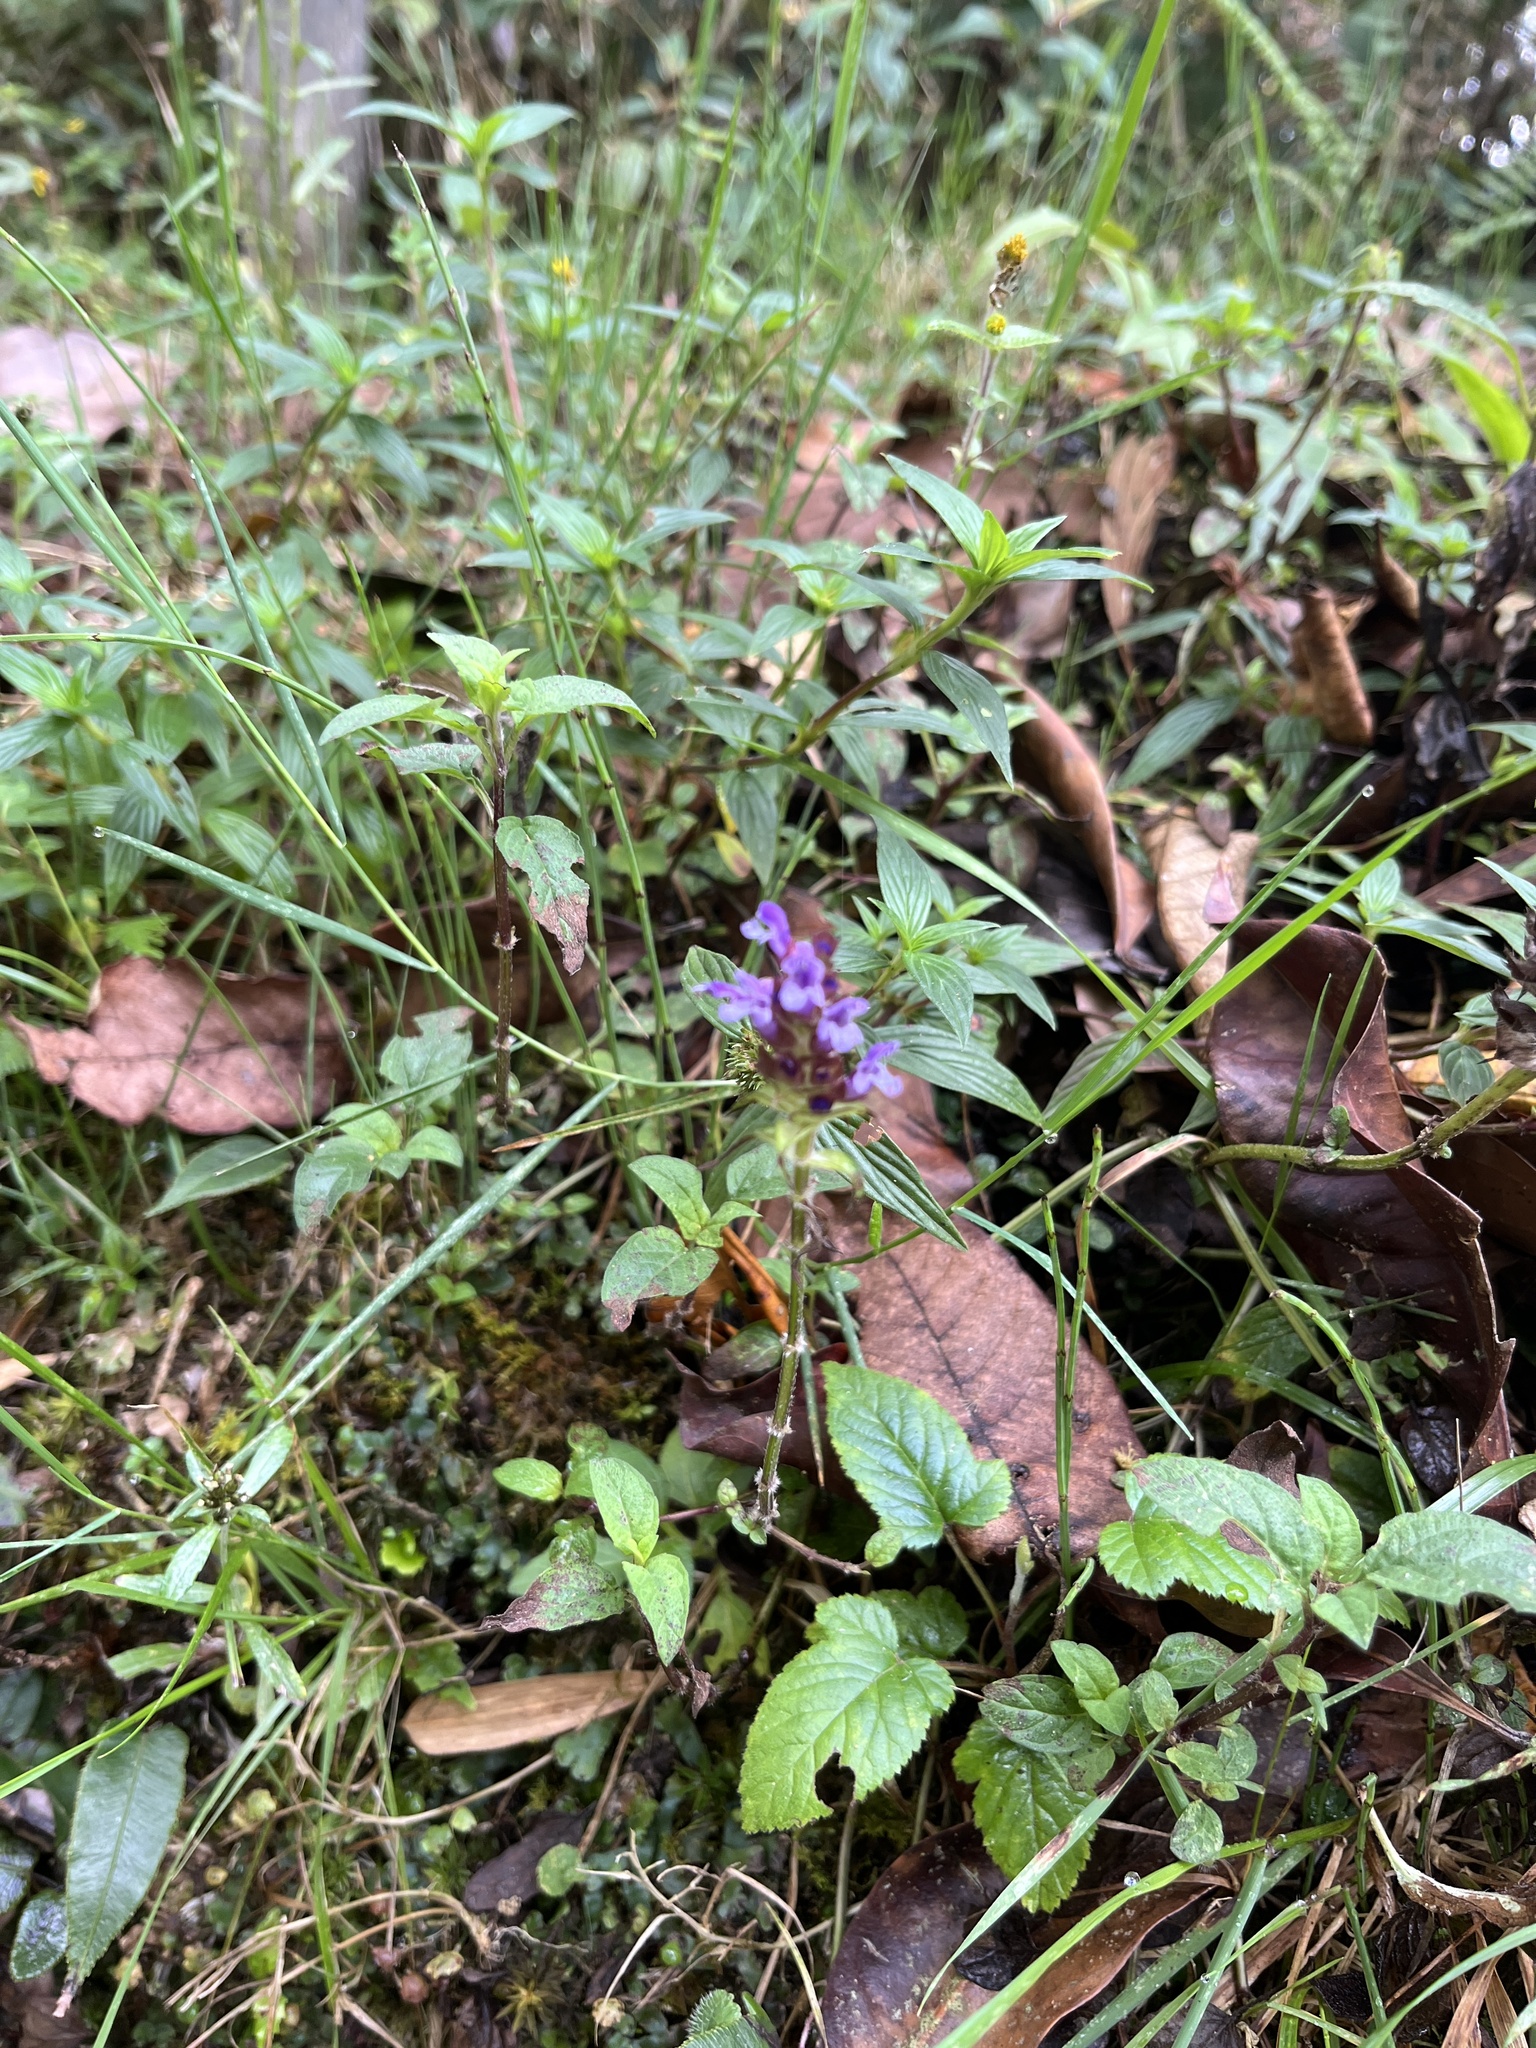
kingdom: Plantae
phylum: Tracheophyta
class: Magnoliopsida
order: Lamiales
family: Lamiaceae
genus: Prunella
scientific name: Prunella vulgaris
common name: Heal-all
